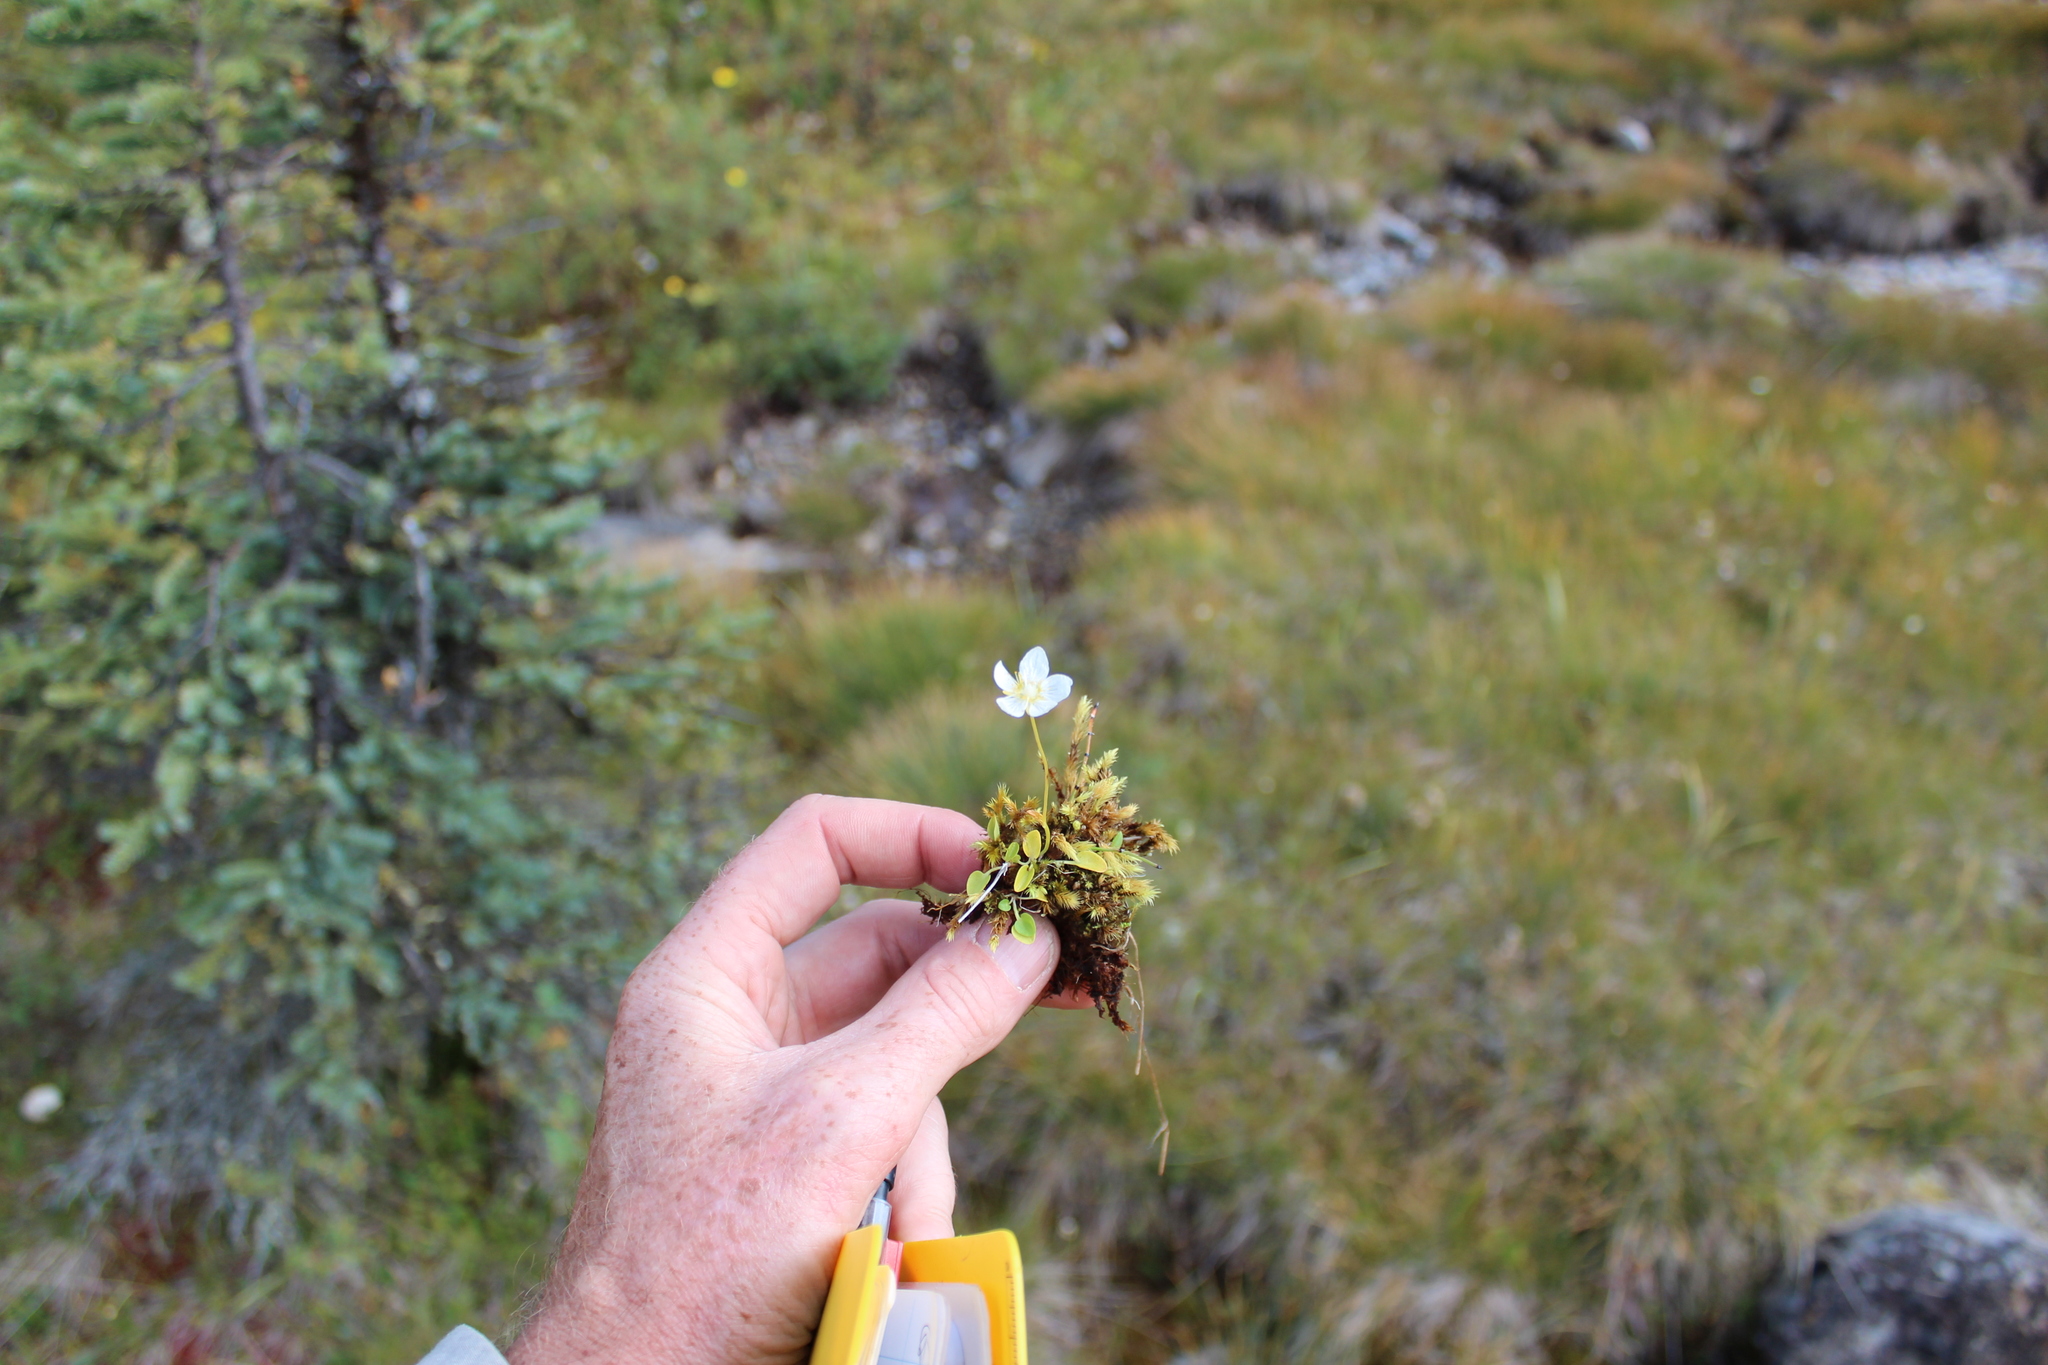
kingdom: Plantae
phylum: Tracheophyta
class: Magnoliopsida
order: Celastrales
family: Parnassiaceae
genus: Parnassia
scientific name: Parnassia palustris
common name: Grass-of-parnassus
